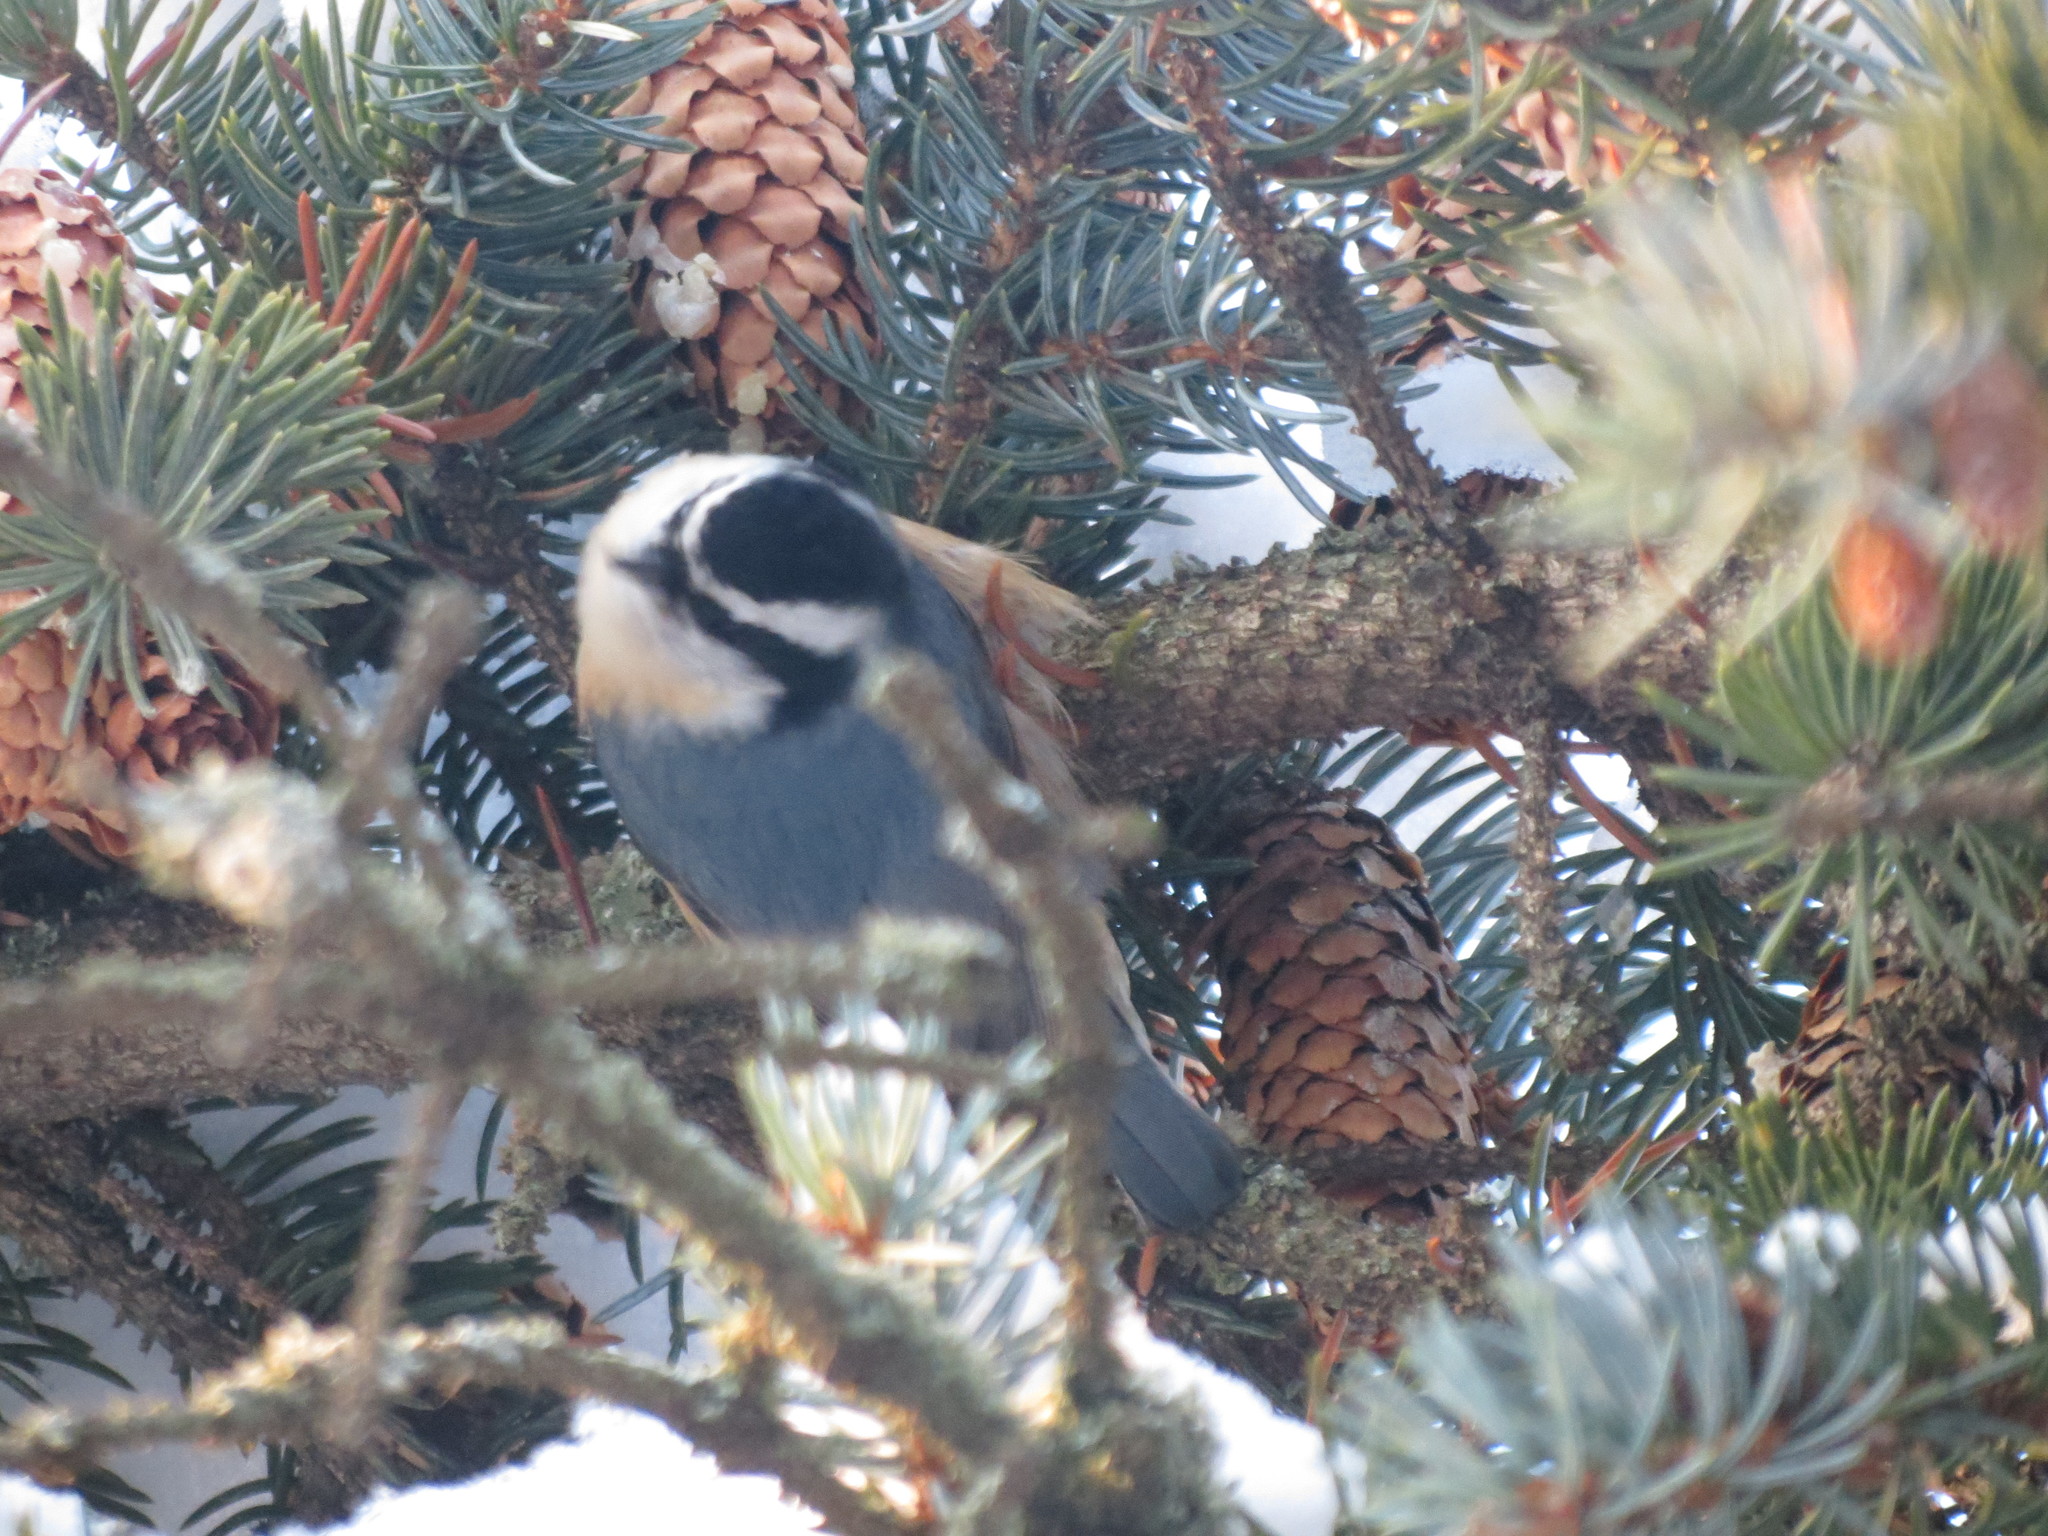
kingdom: Animalia
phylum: Chordata
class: Aves
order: Passeriformes
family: Sittidae
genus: Sitta
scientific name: Sitta canadensis
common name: Red-breasted nuthatch
